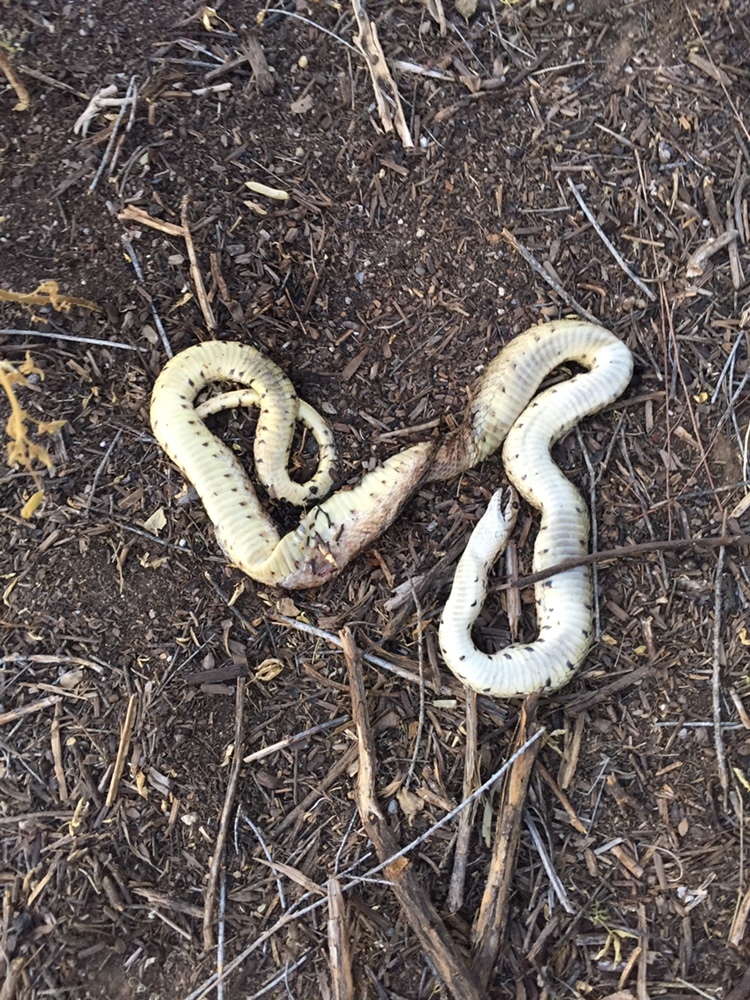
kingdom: Animalia
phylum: Chordata
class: Squamata
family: Colubridae
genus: Pituophis
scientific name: Pituophis catenifer
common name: Gopher snake
